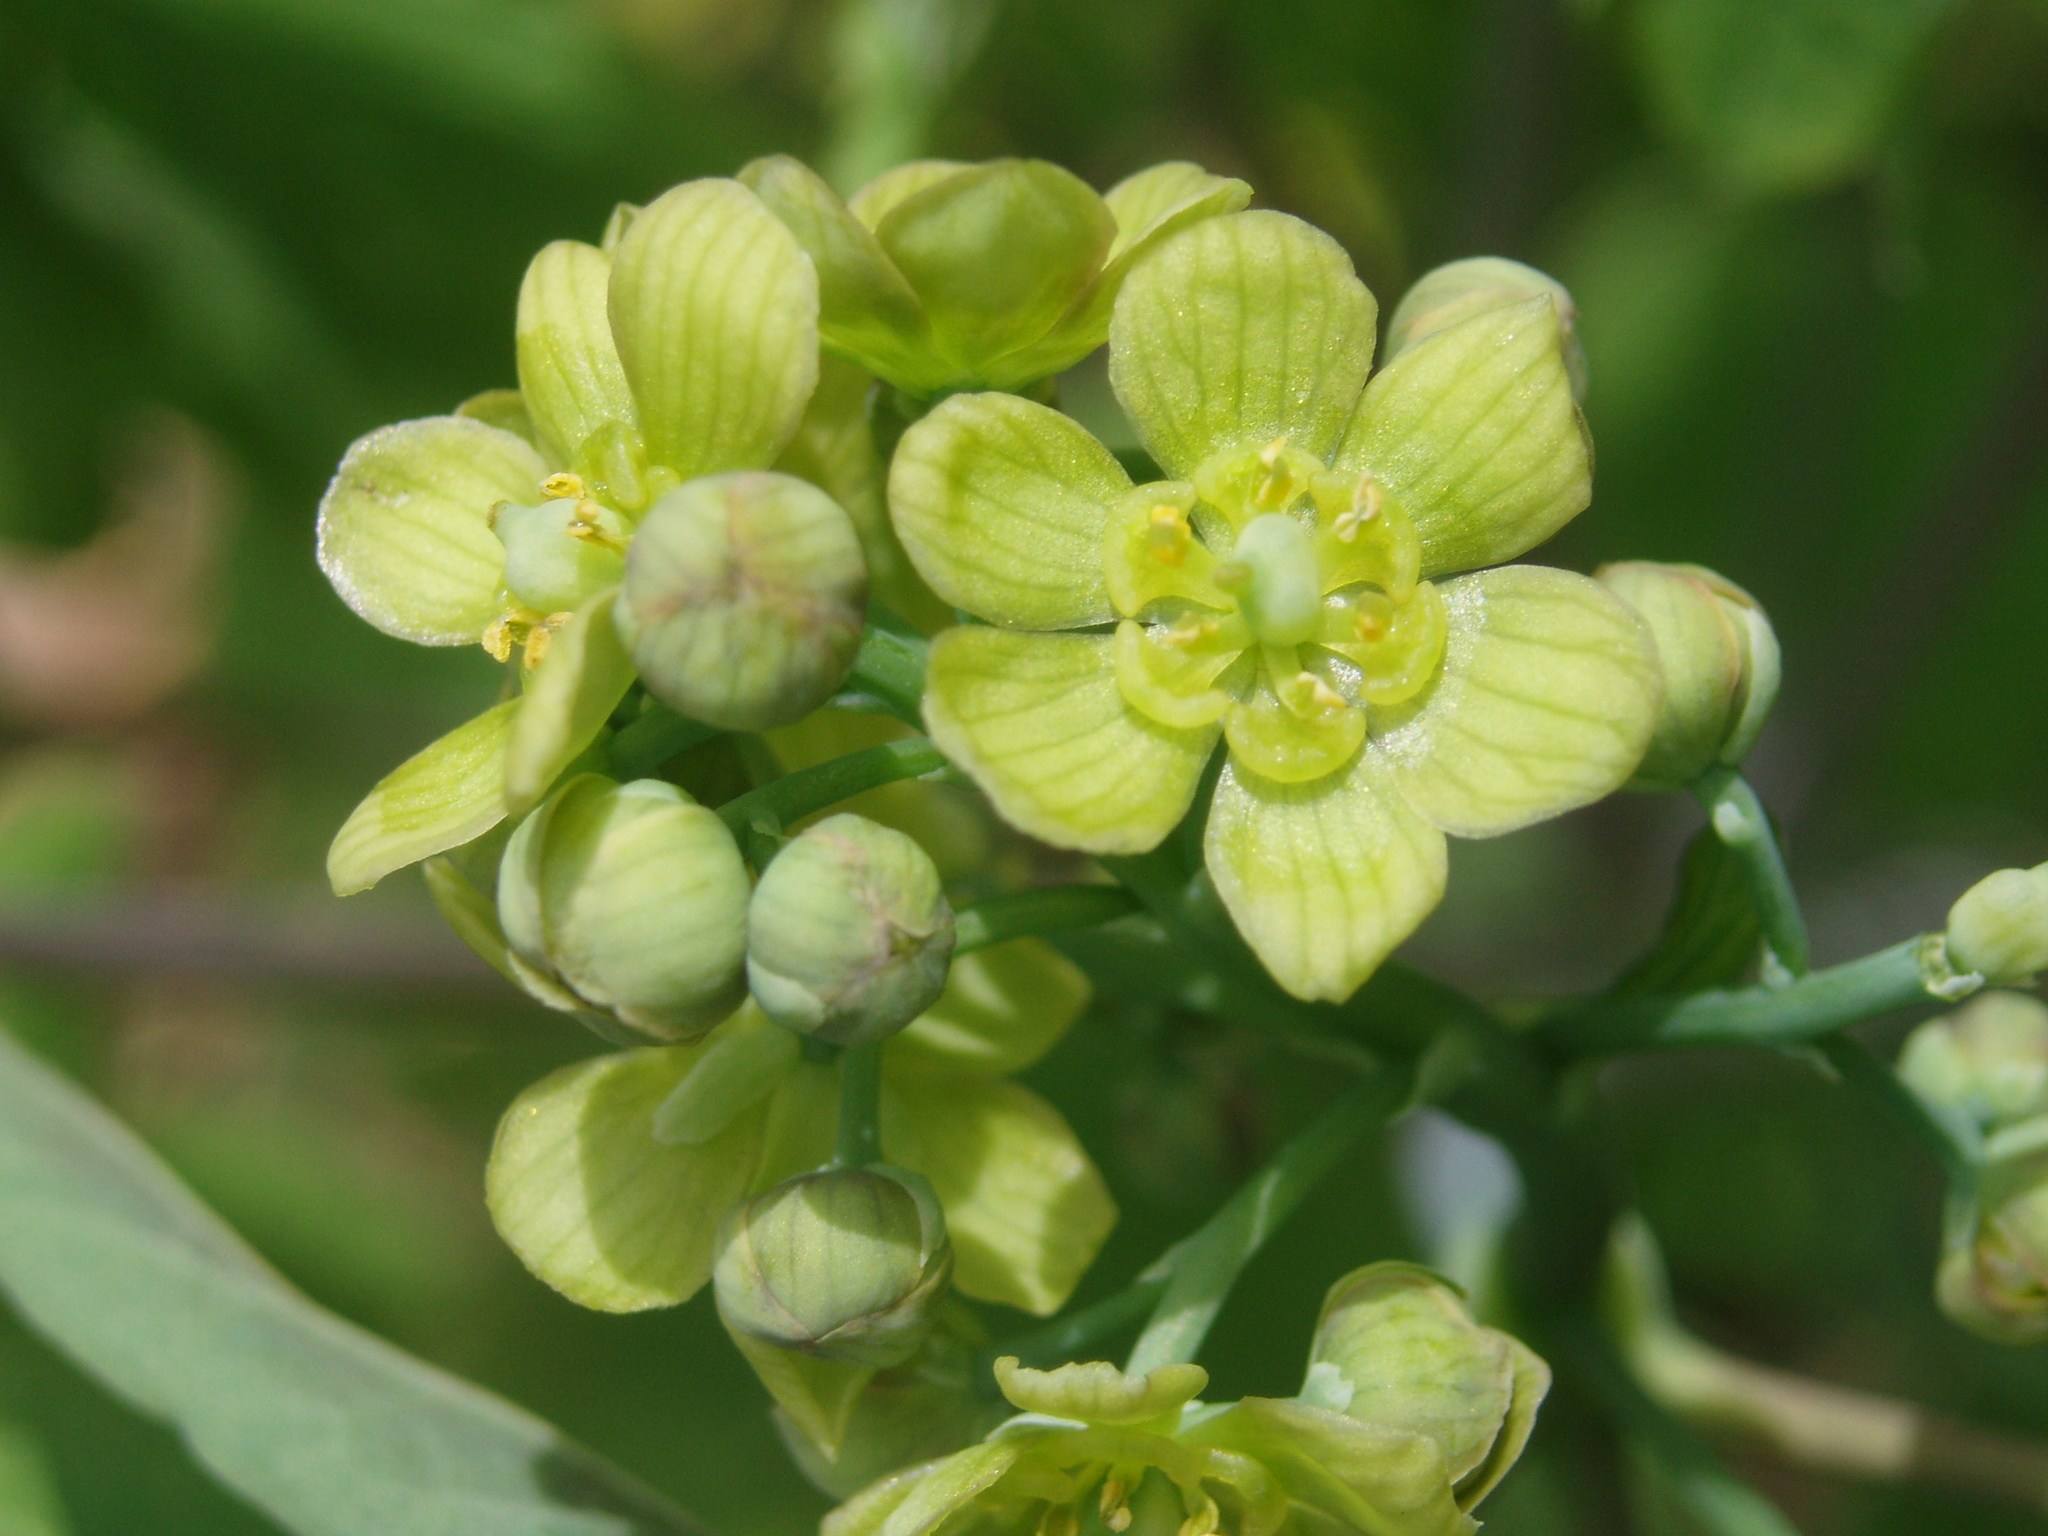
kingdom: Plantae
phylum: Tracheophyta
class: Magnoliopsida
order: Ranunculales
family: Berberidaceae
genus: Caulophyllum
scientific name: Caulophyllum thalictroides
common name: Blue cohosh
